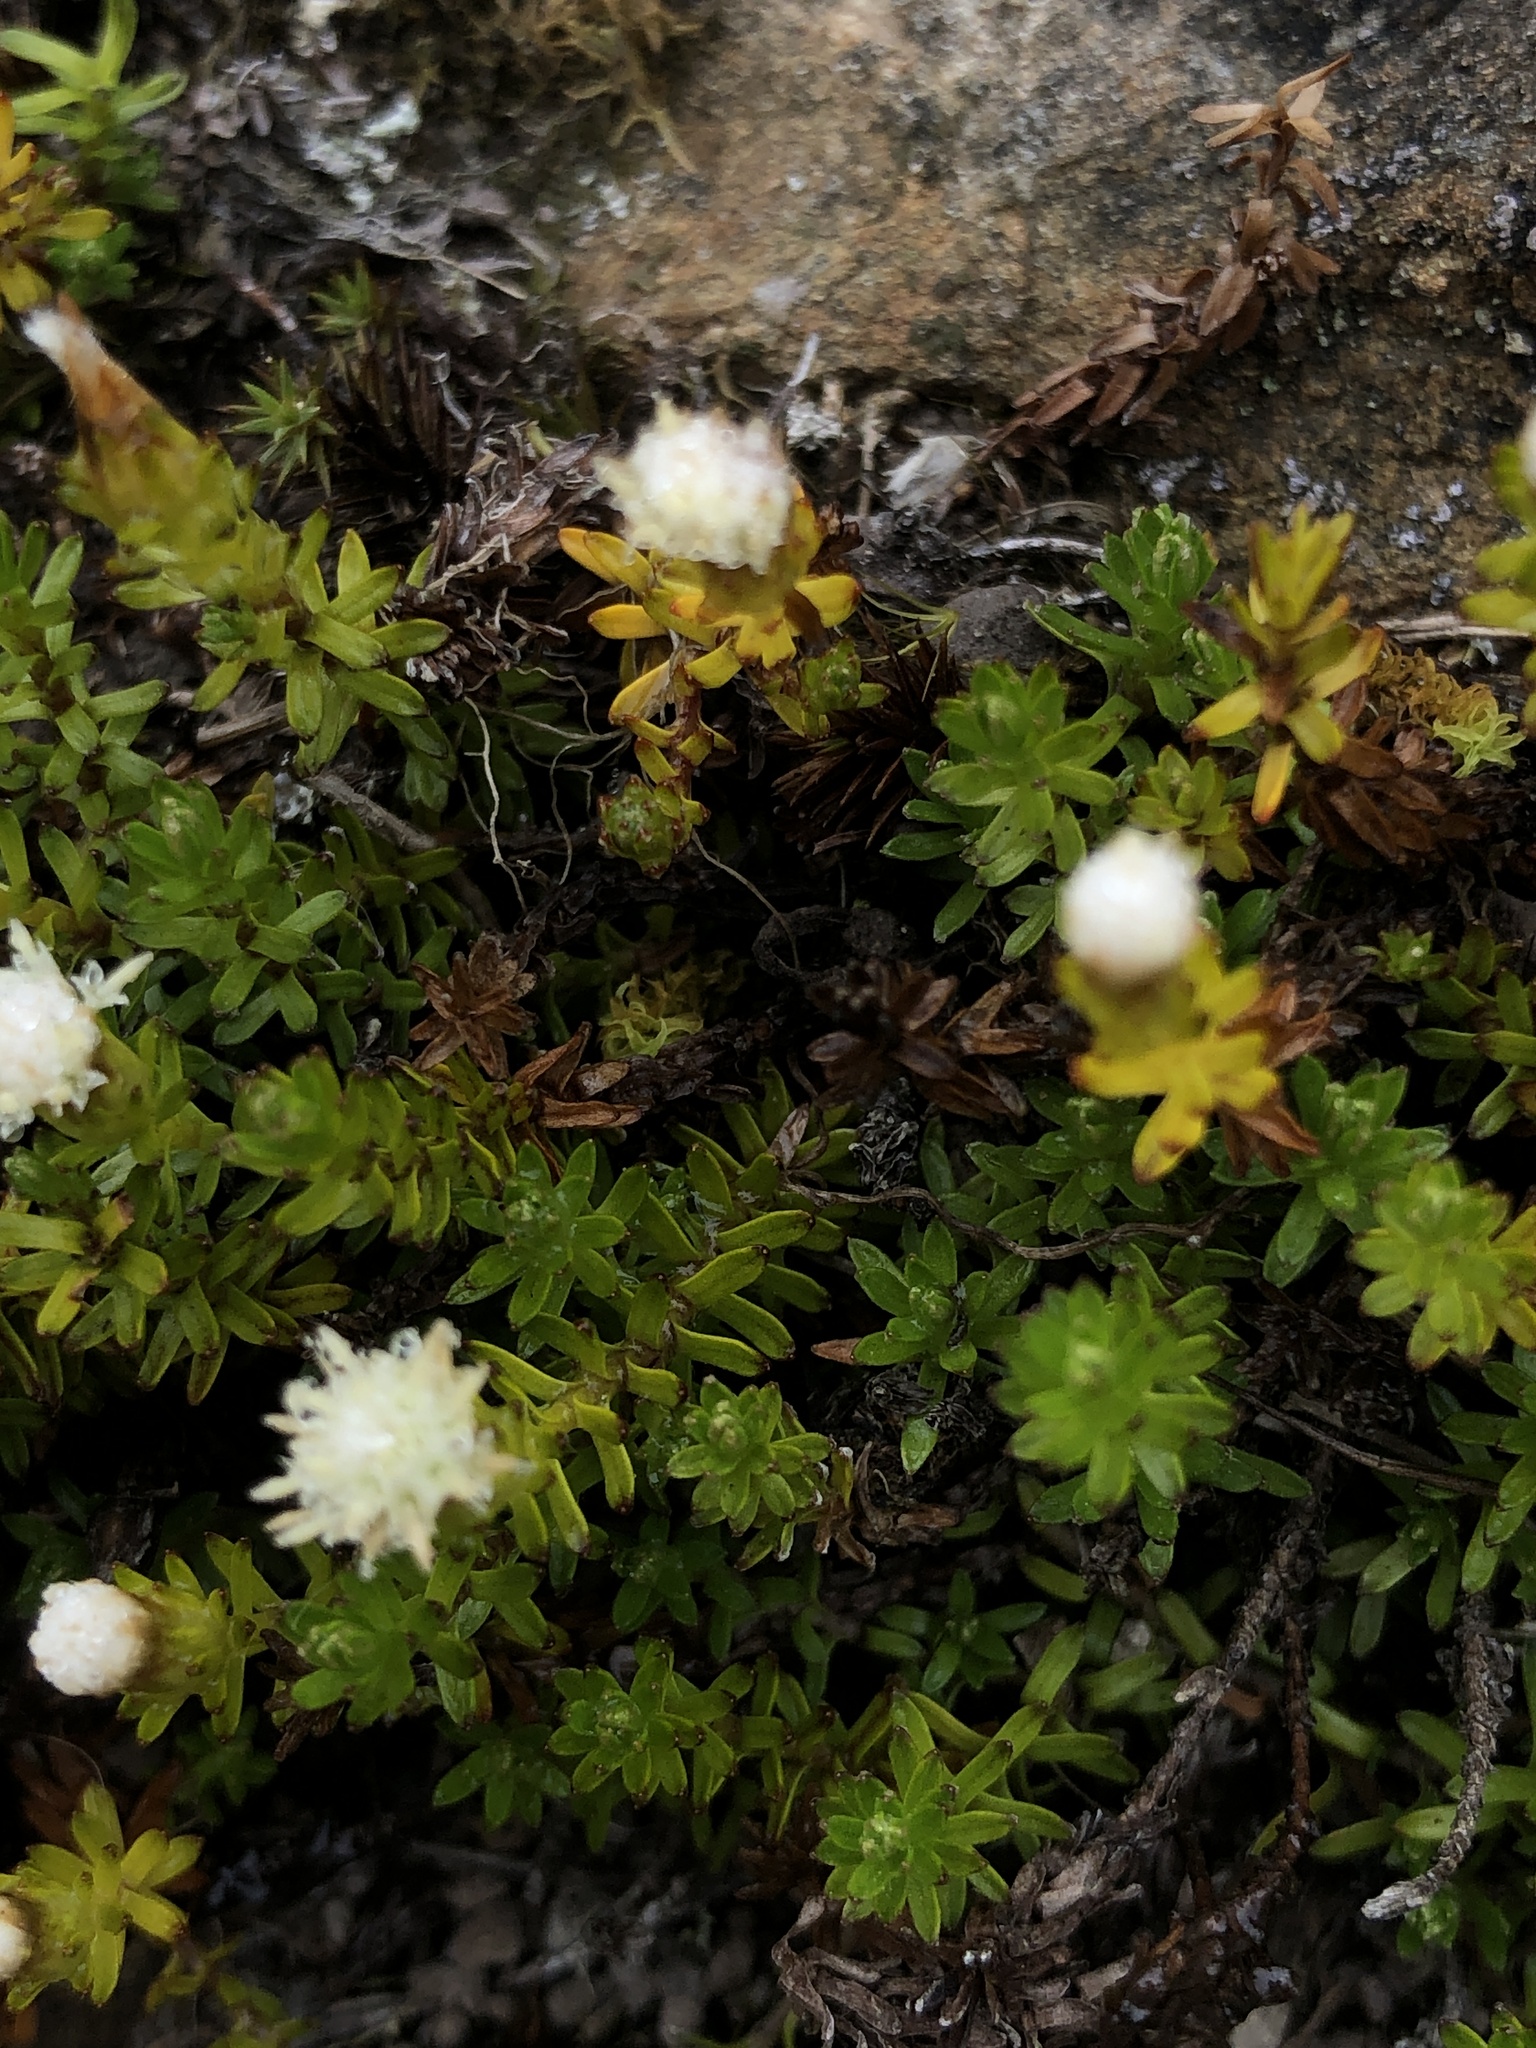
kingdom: Plantae
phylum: Tracheophyta
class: Magnoliopsida
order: Asterales
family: Asteraceae
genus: Raoulia
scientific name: Raoulia glabra
